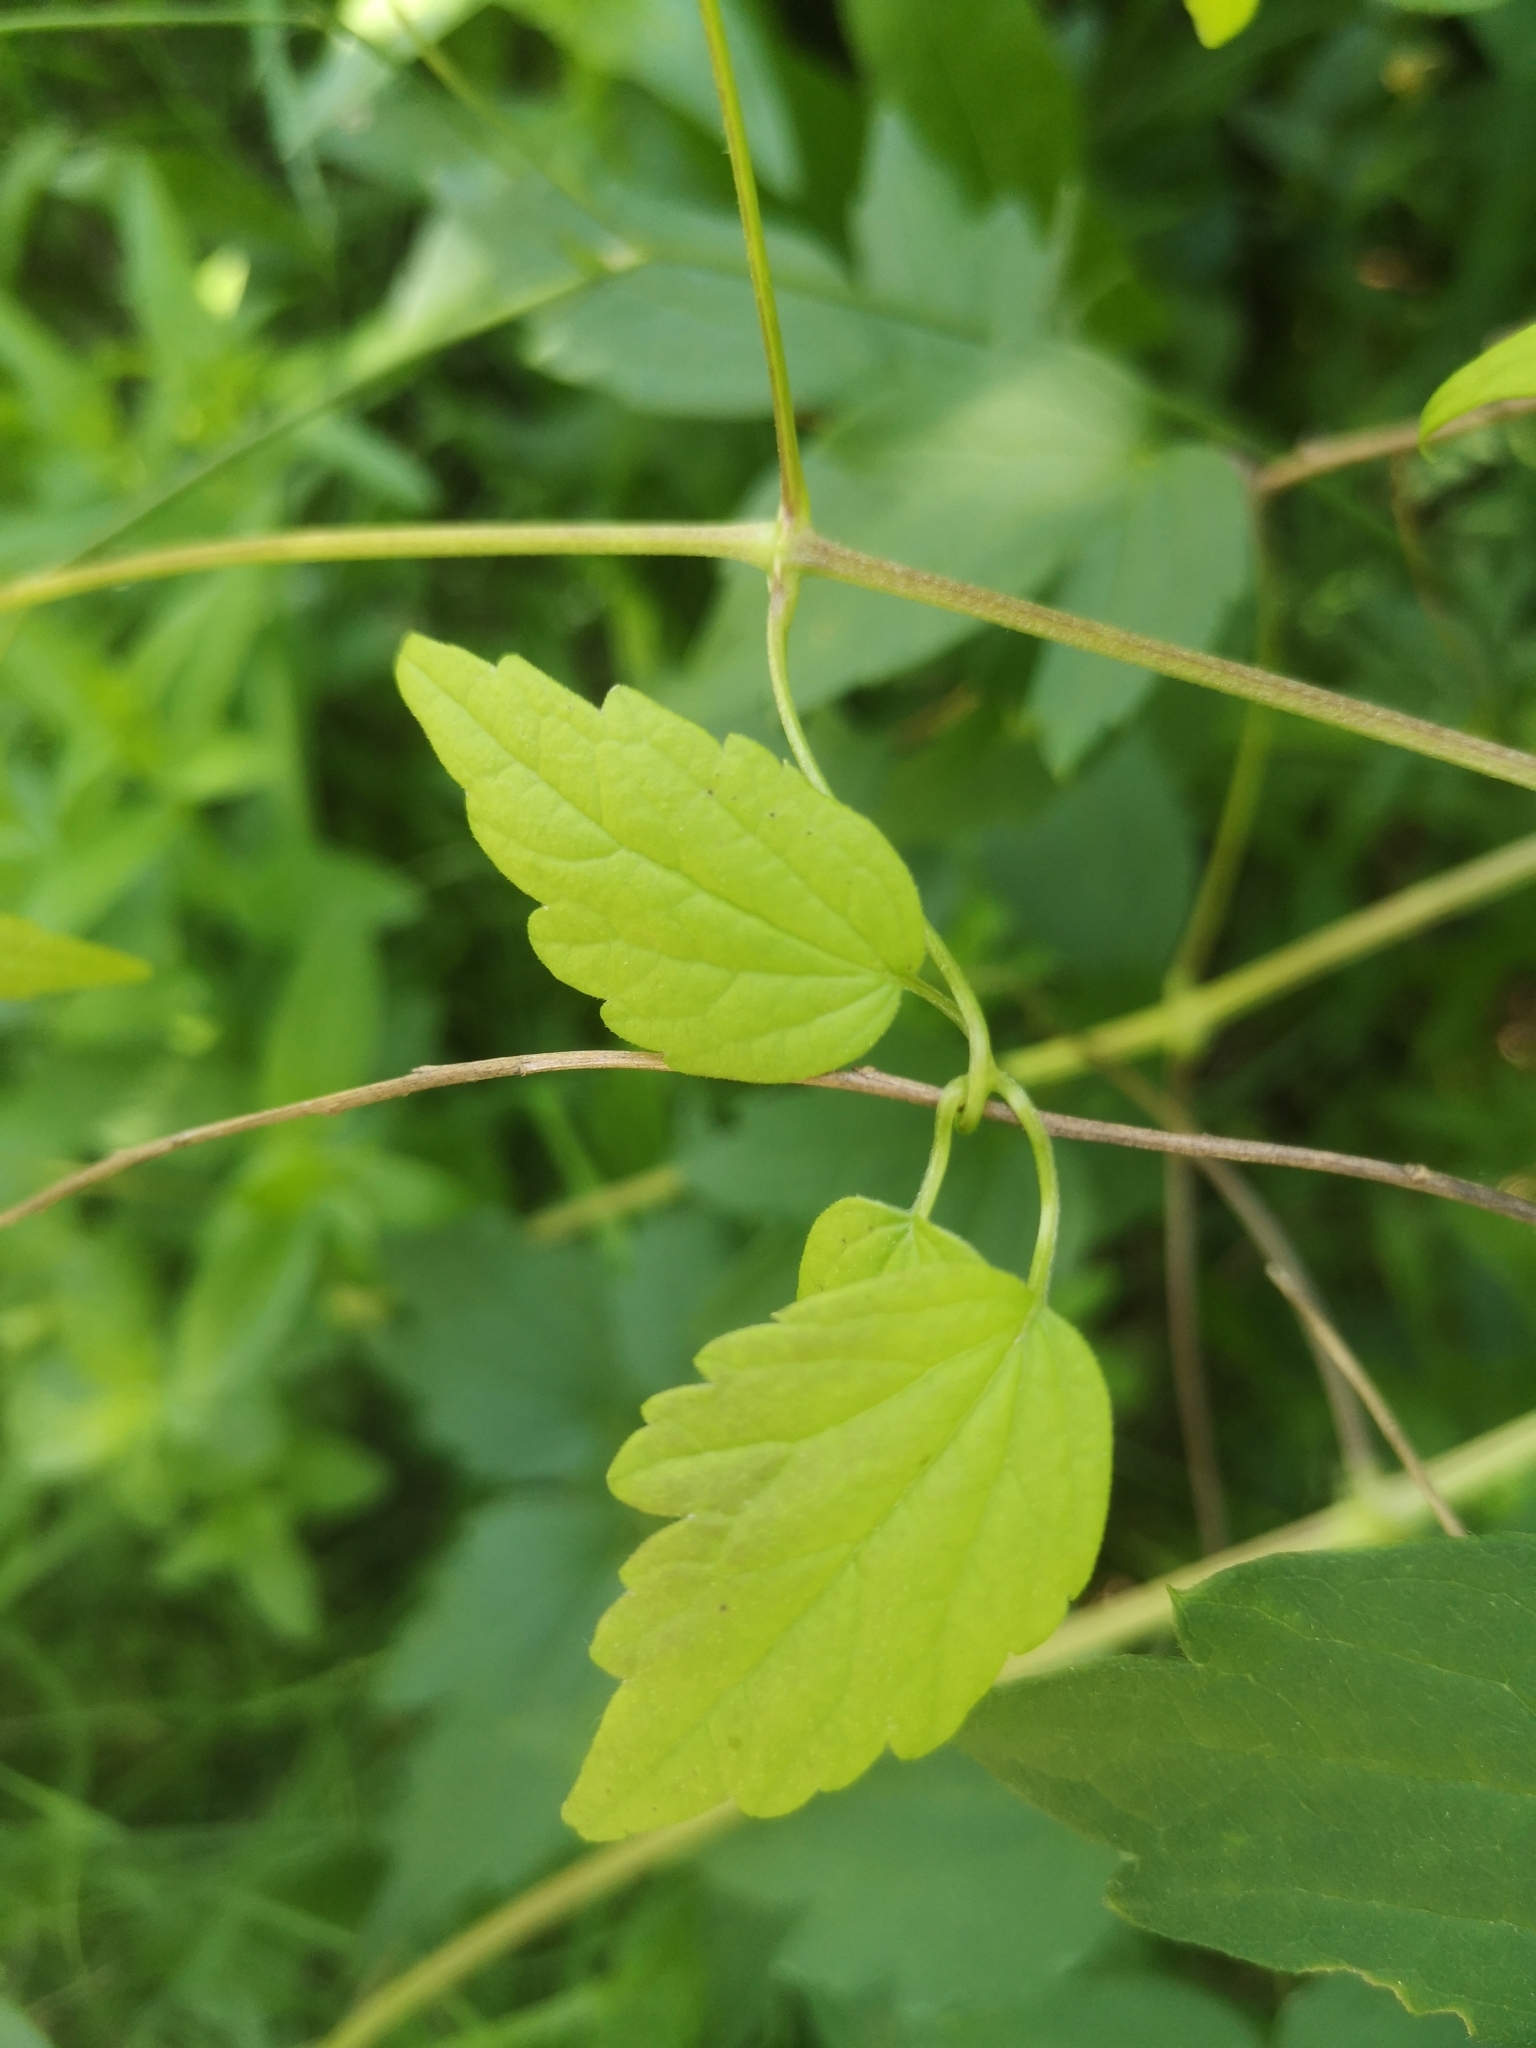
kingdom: Plantae
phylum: Tracheophyta
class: Magnoliopsida
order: Ranunculales
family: Ranunculaceae
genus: Clematis
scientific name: Clematis virginiana
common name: Virgin's-bower
